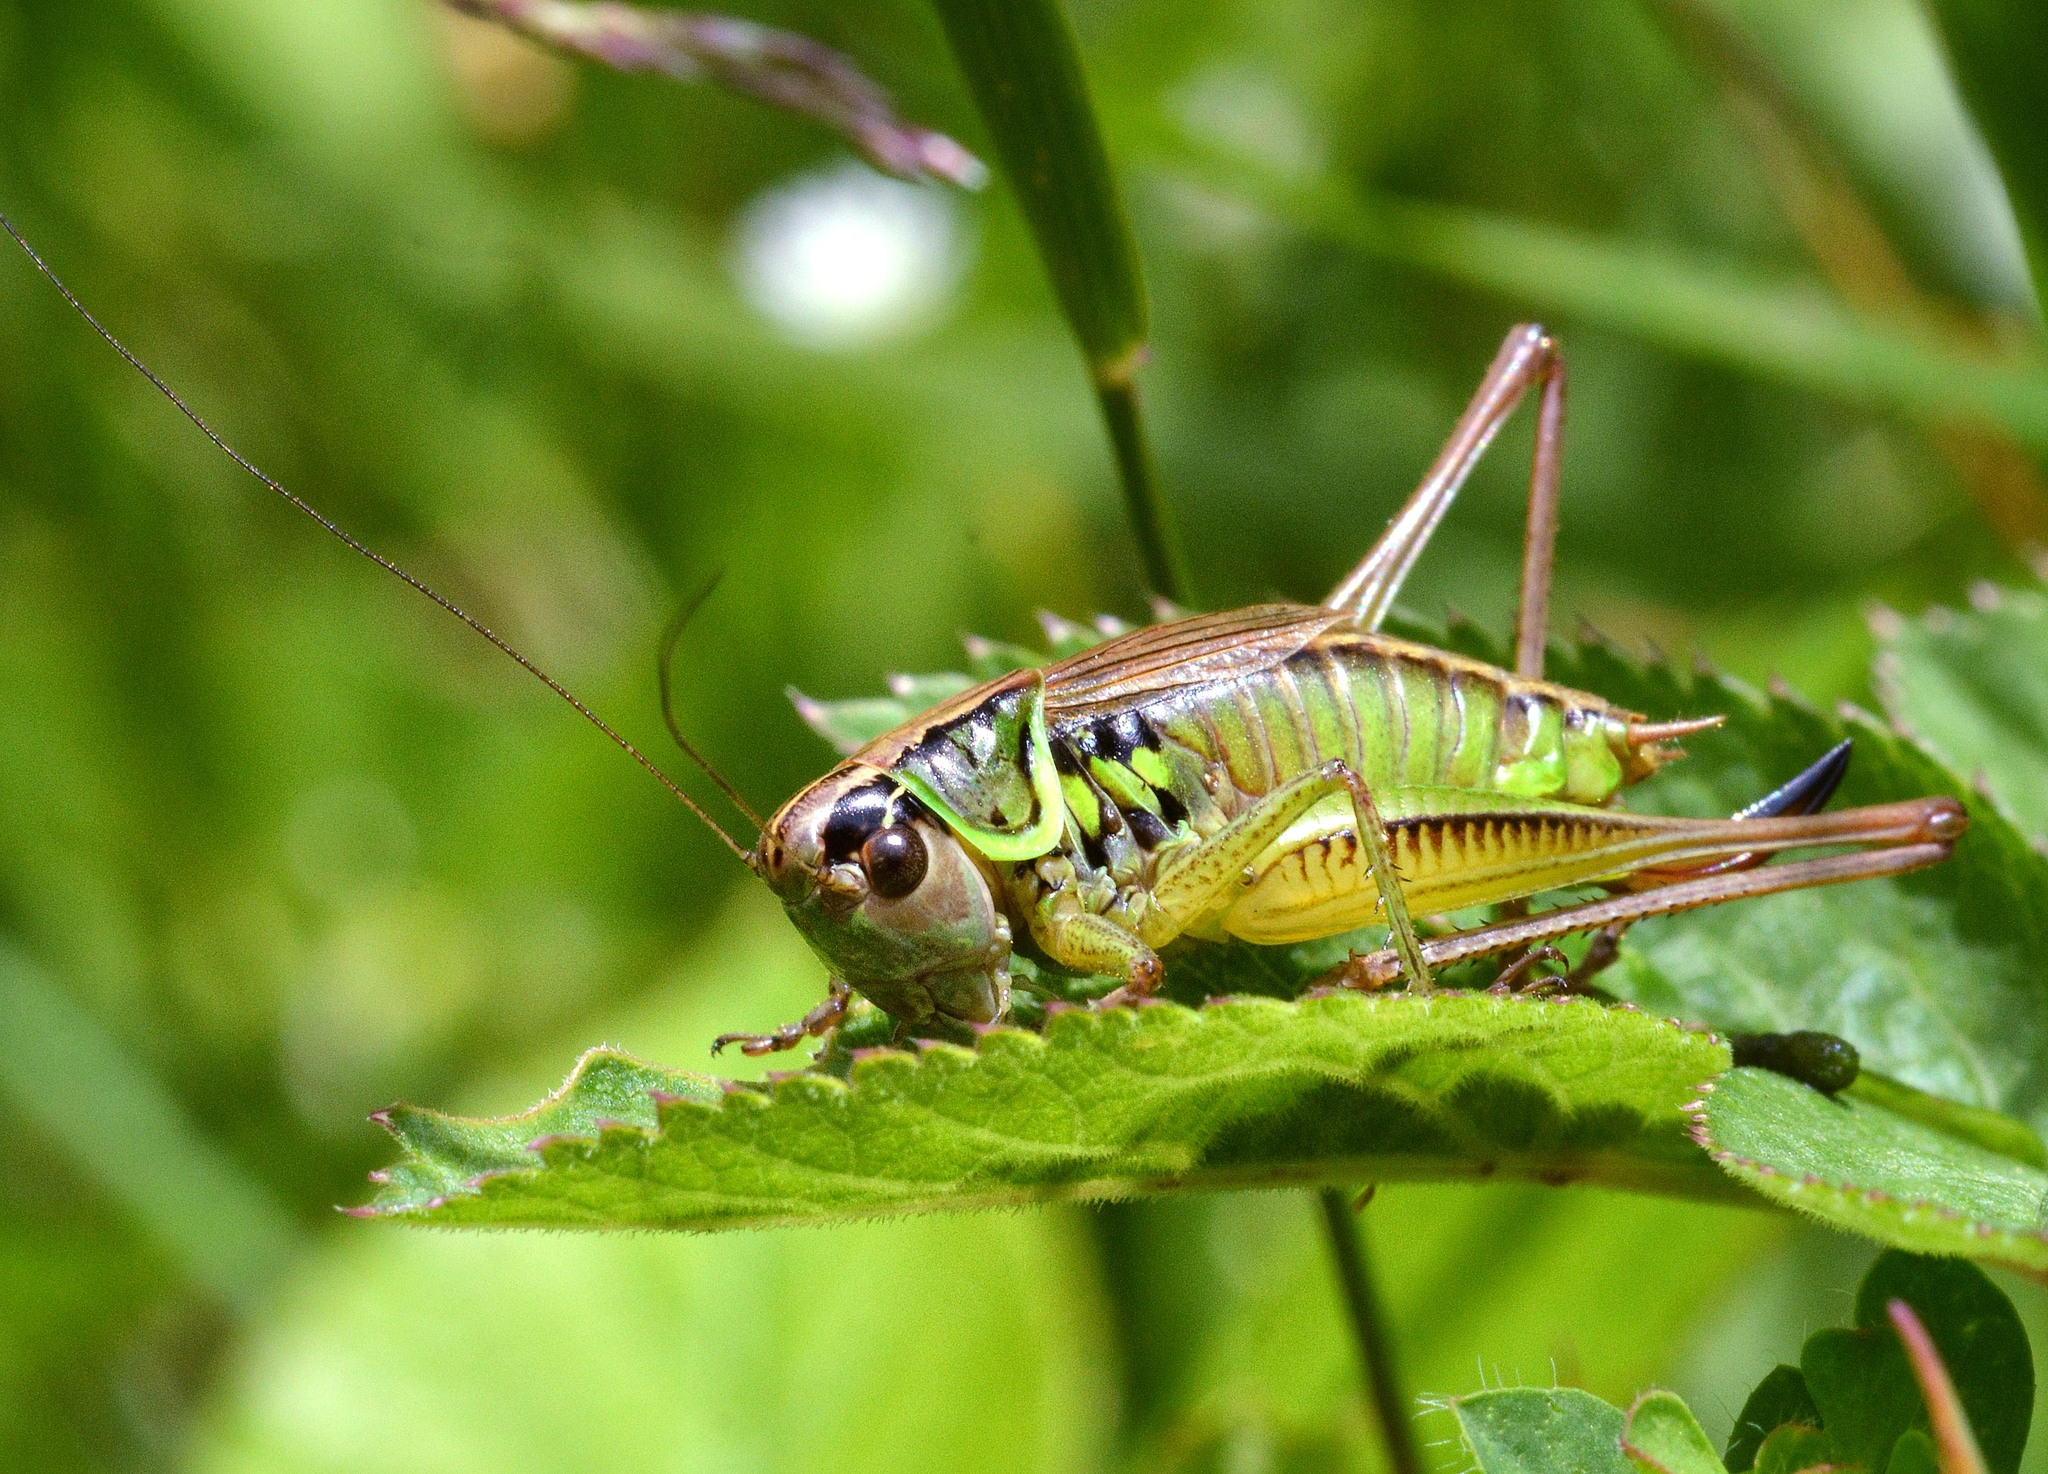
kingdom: Animalia
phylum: Arthropoda
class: Insecta
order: Orthoptera
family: Tettigoniidae
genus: Roeseliana
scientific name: Roeseliana roeselii
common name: Roesel's bush cricket
